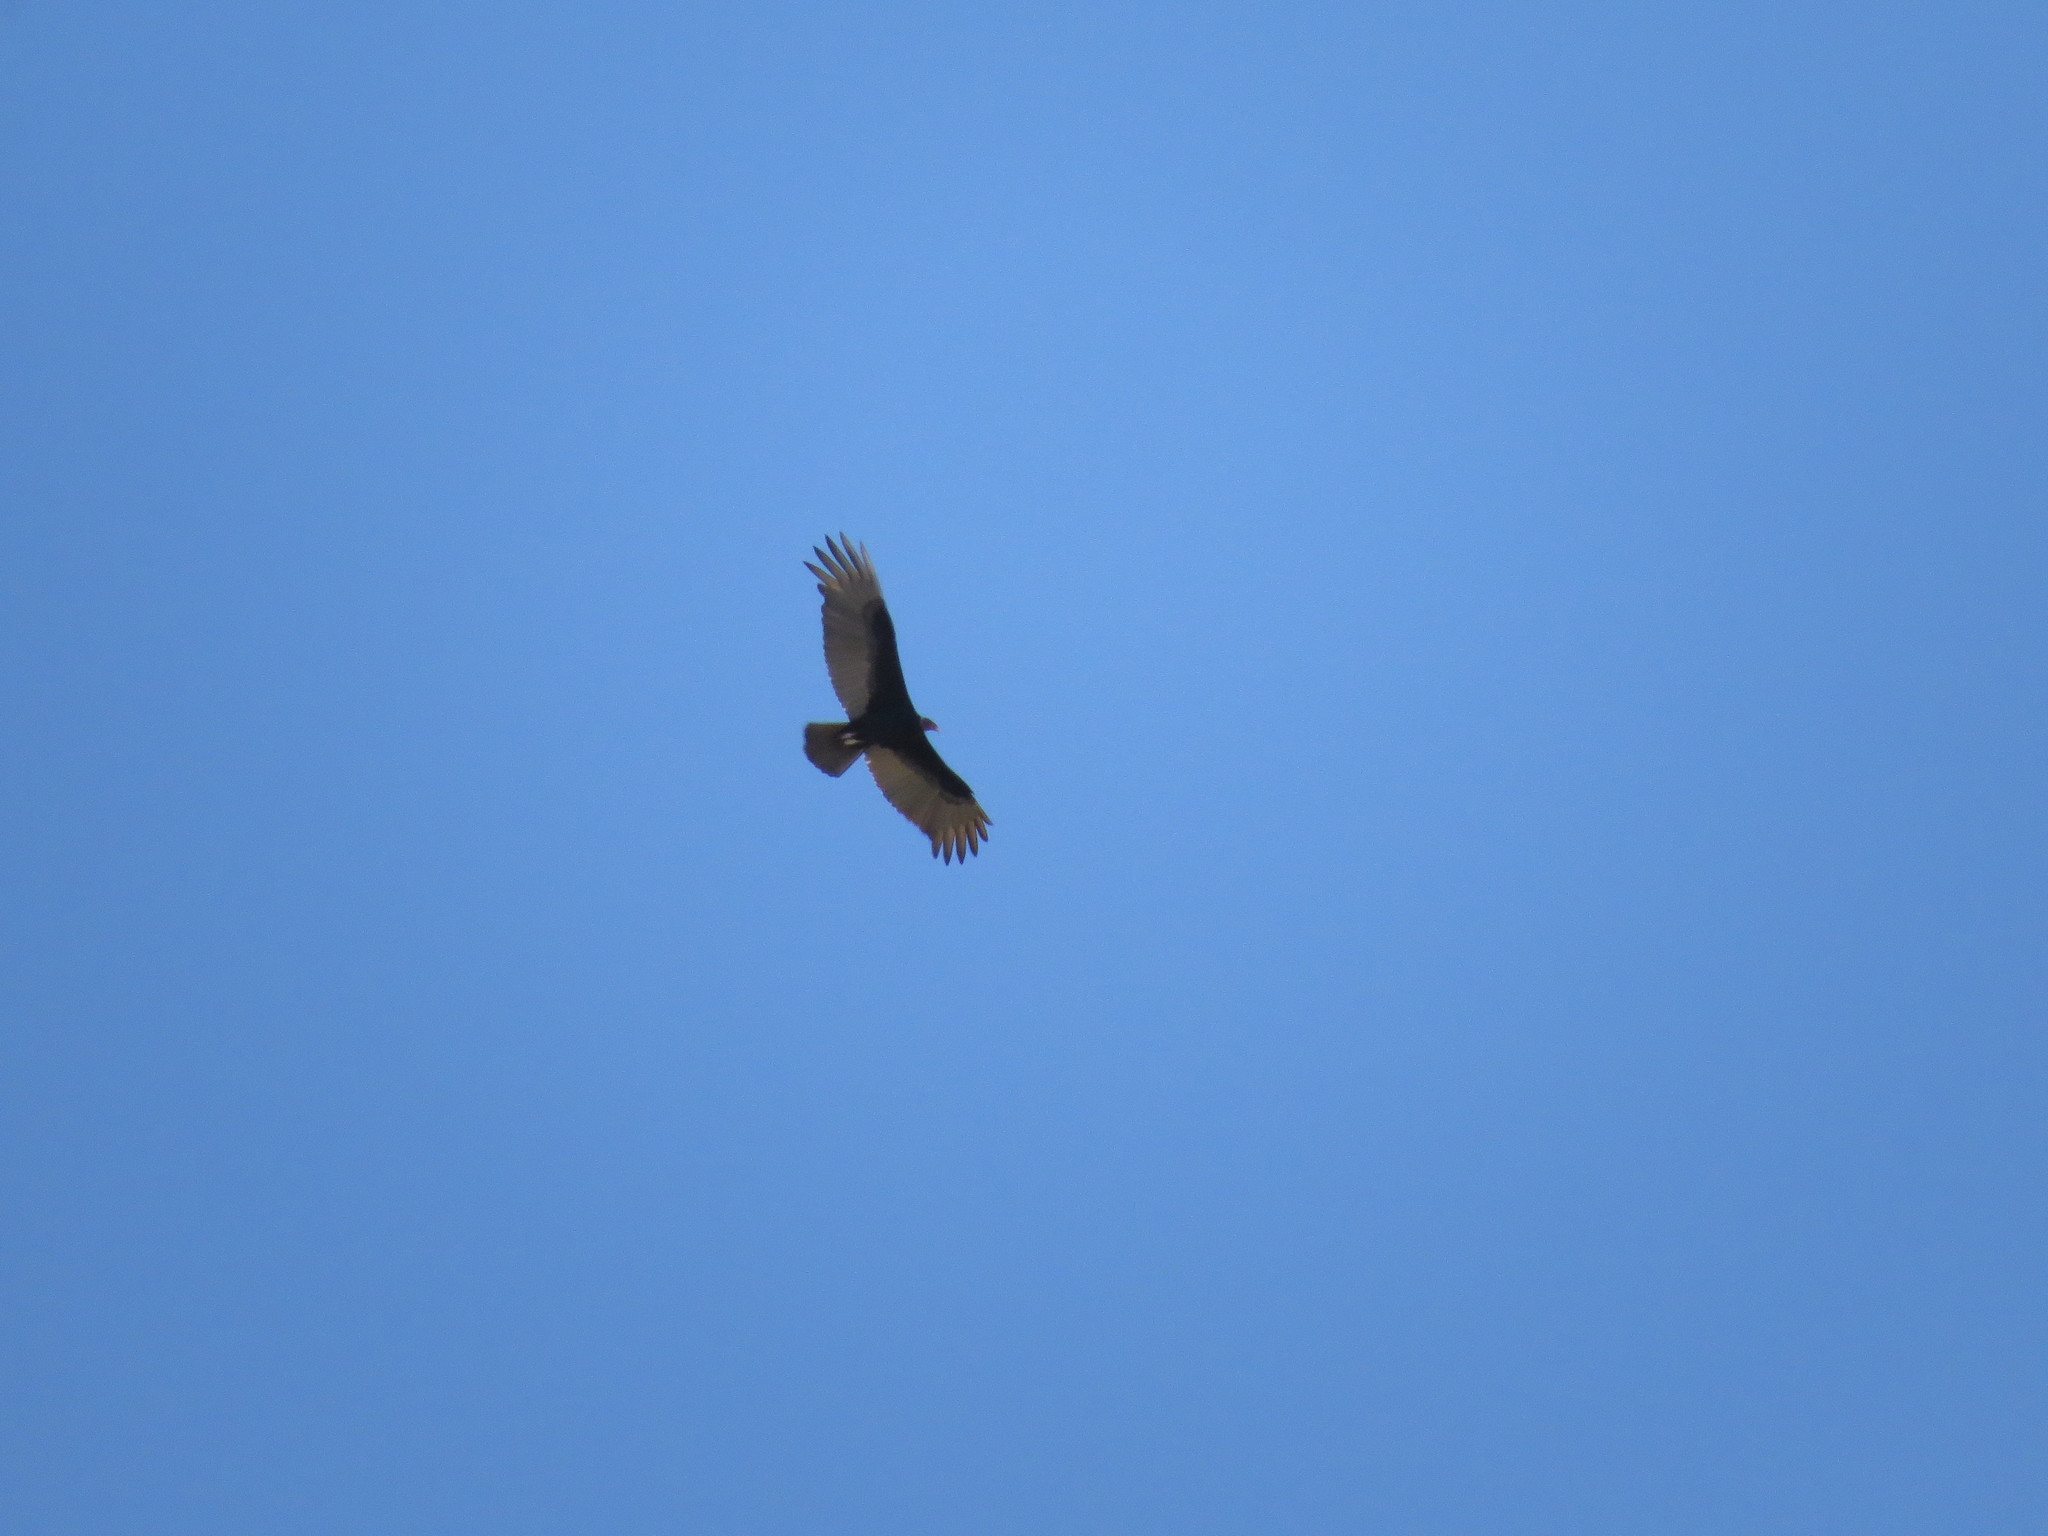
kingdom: Animalia
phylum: Chordata
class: Aves
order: Accipitriformes
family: Cathartidae
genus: Cathartes
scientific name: Cathartes aura
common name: Turkey vulture
